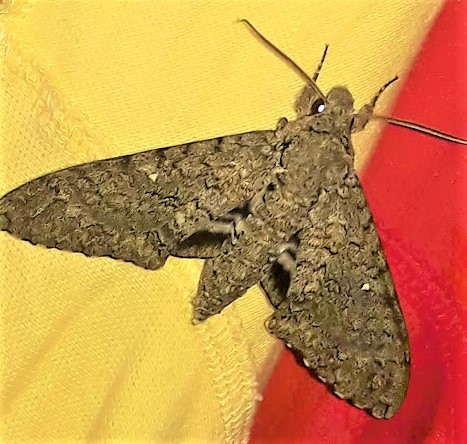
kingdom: Animalia
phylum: Arthropoda
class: Insecta
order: Lepidoptera
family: Sphingidae
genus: Manduca
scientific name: Manduca muscosa
